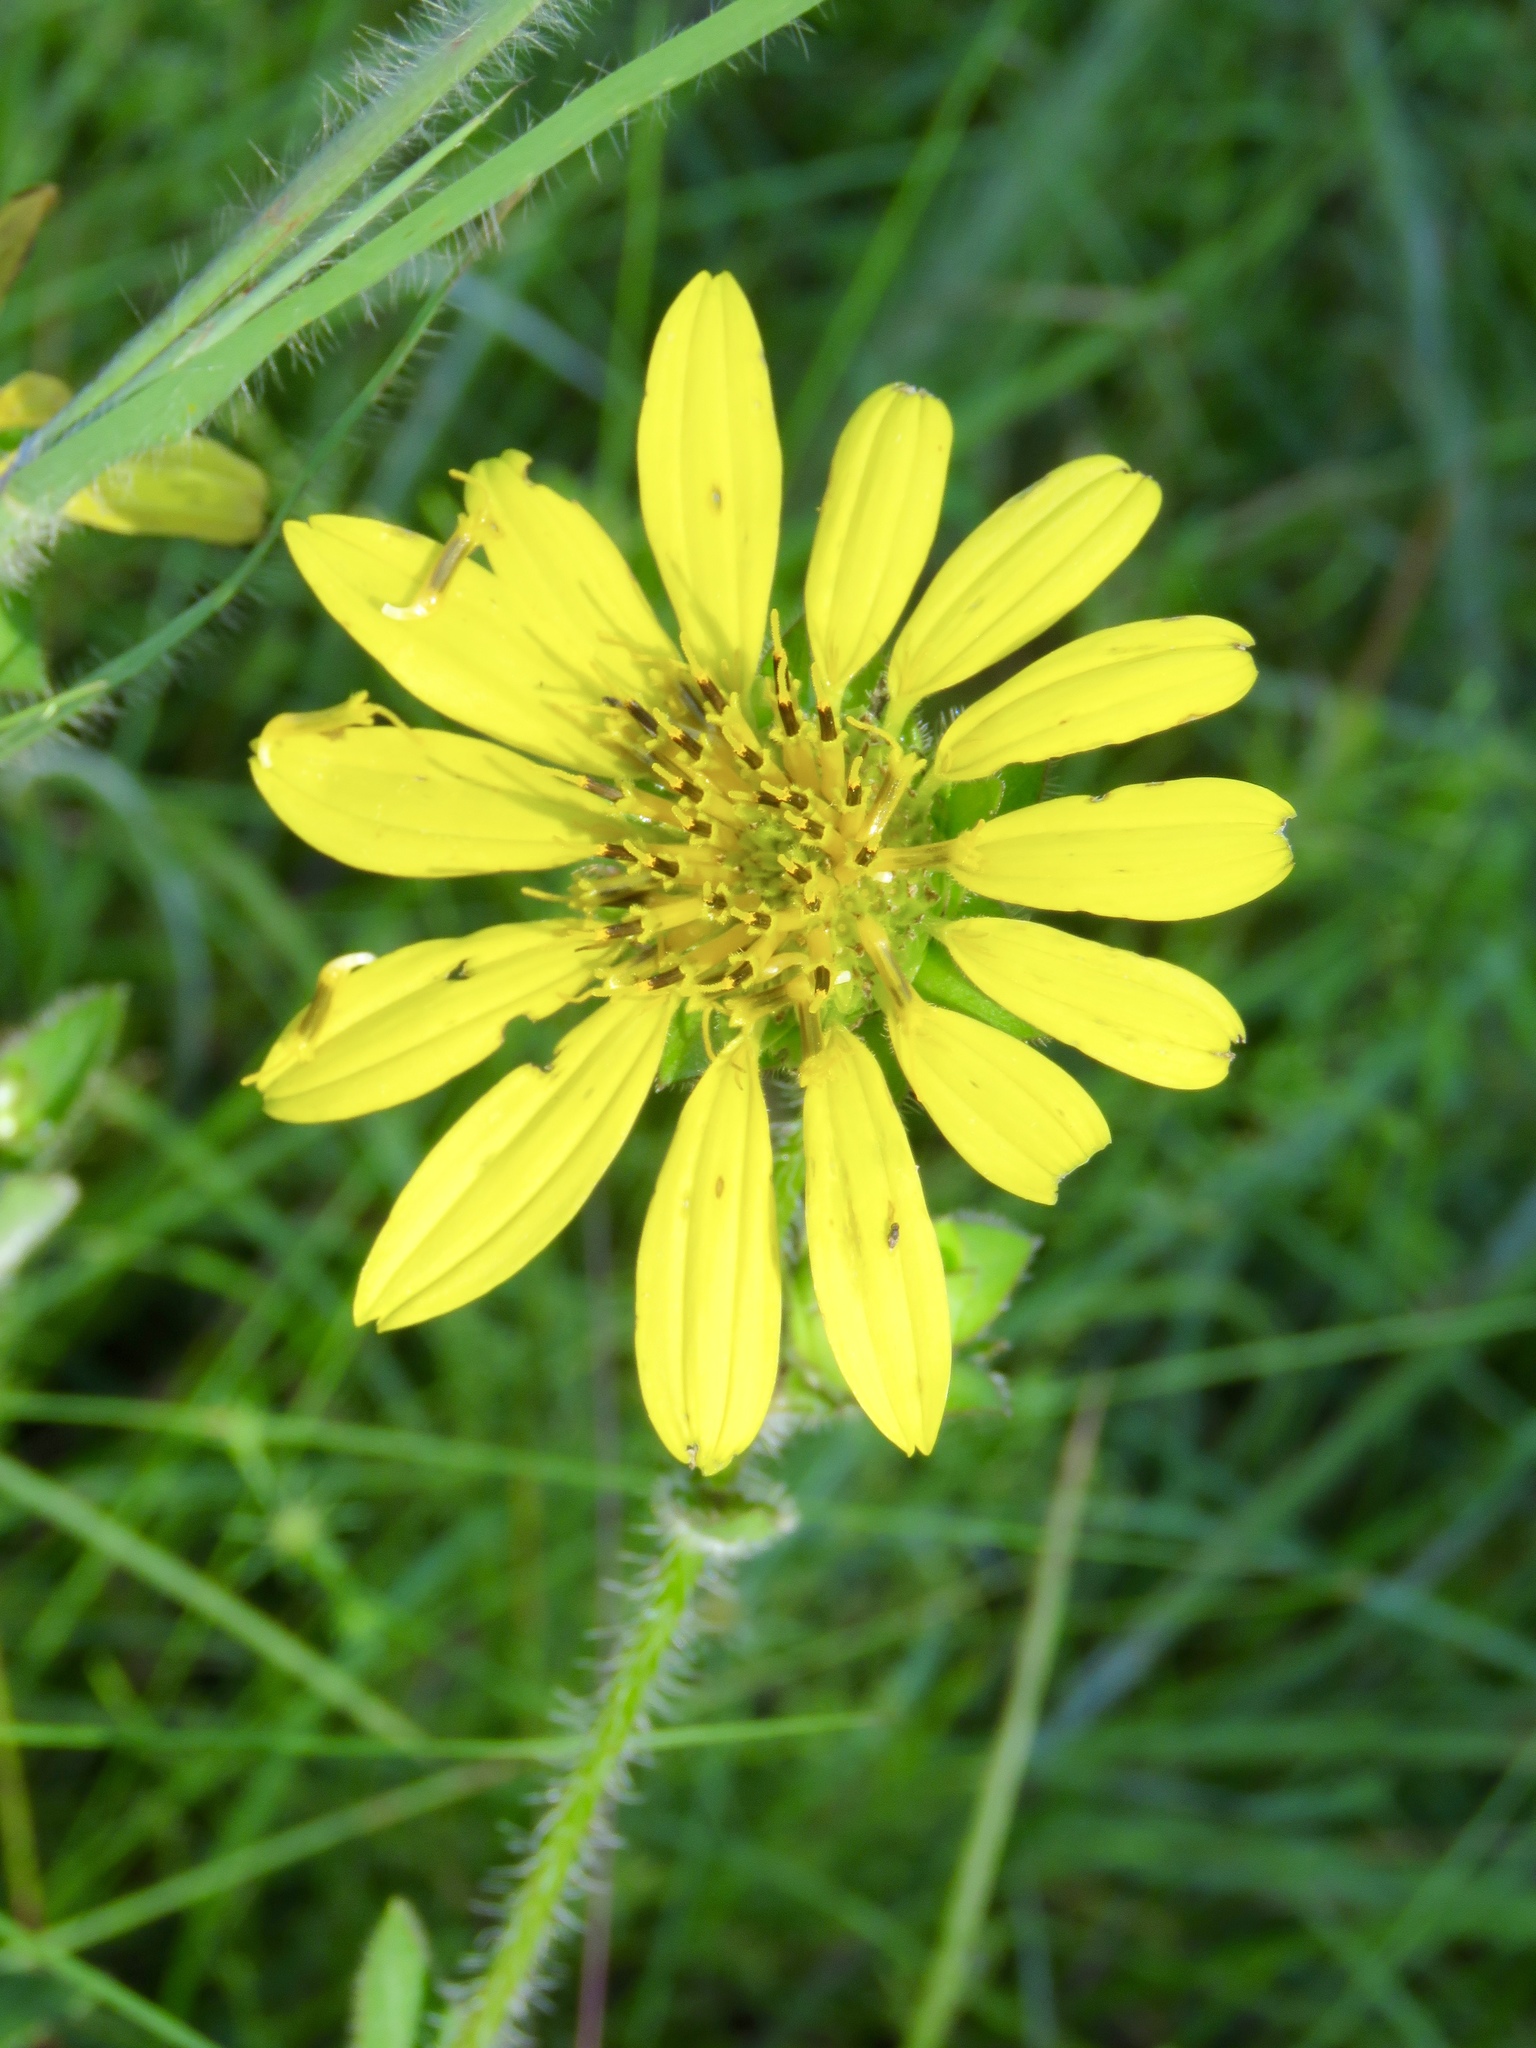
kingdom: Plantae
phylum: Tracheophyta
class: Magnoliopsida
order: Asterales
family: Asteraceae
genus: Silphium
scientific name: Silphium radula
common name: Roughleaf rosinweed
